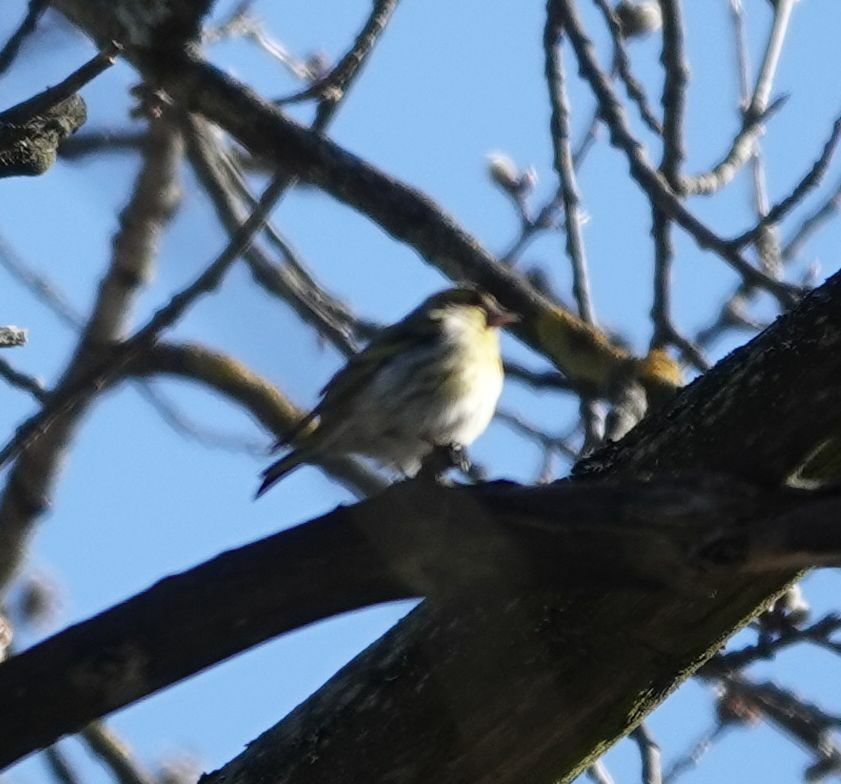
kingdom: Animalia
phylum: Chordata
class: Aves
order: Passeriformes
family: Fringillidae
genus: Spinus
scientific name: Spinus spinus
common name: Eurasian siskin
